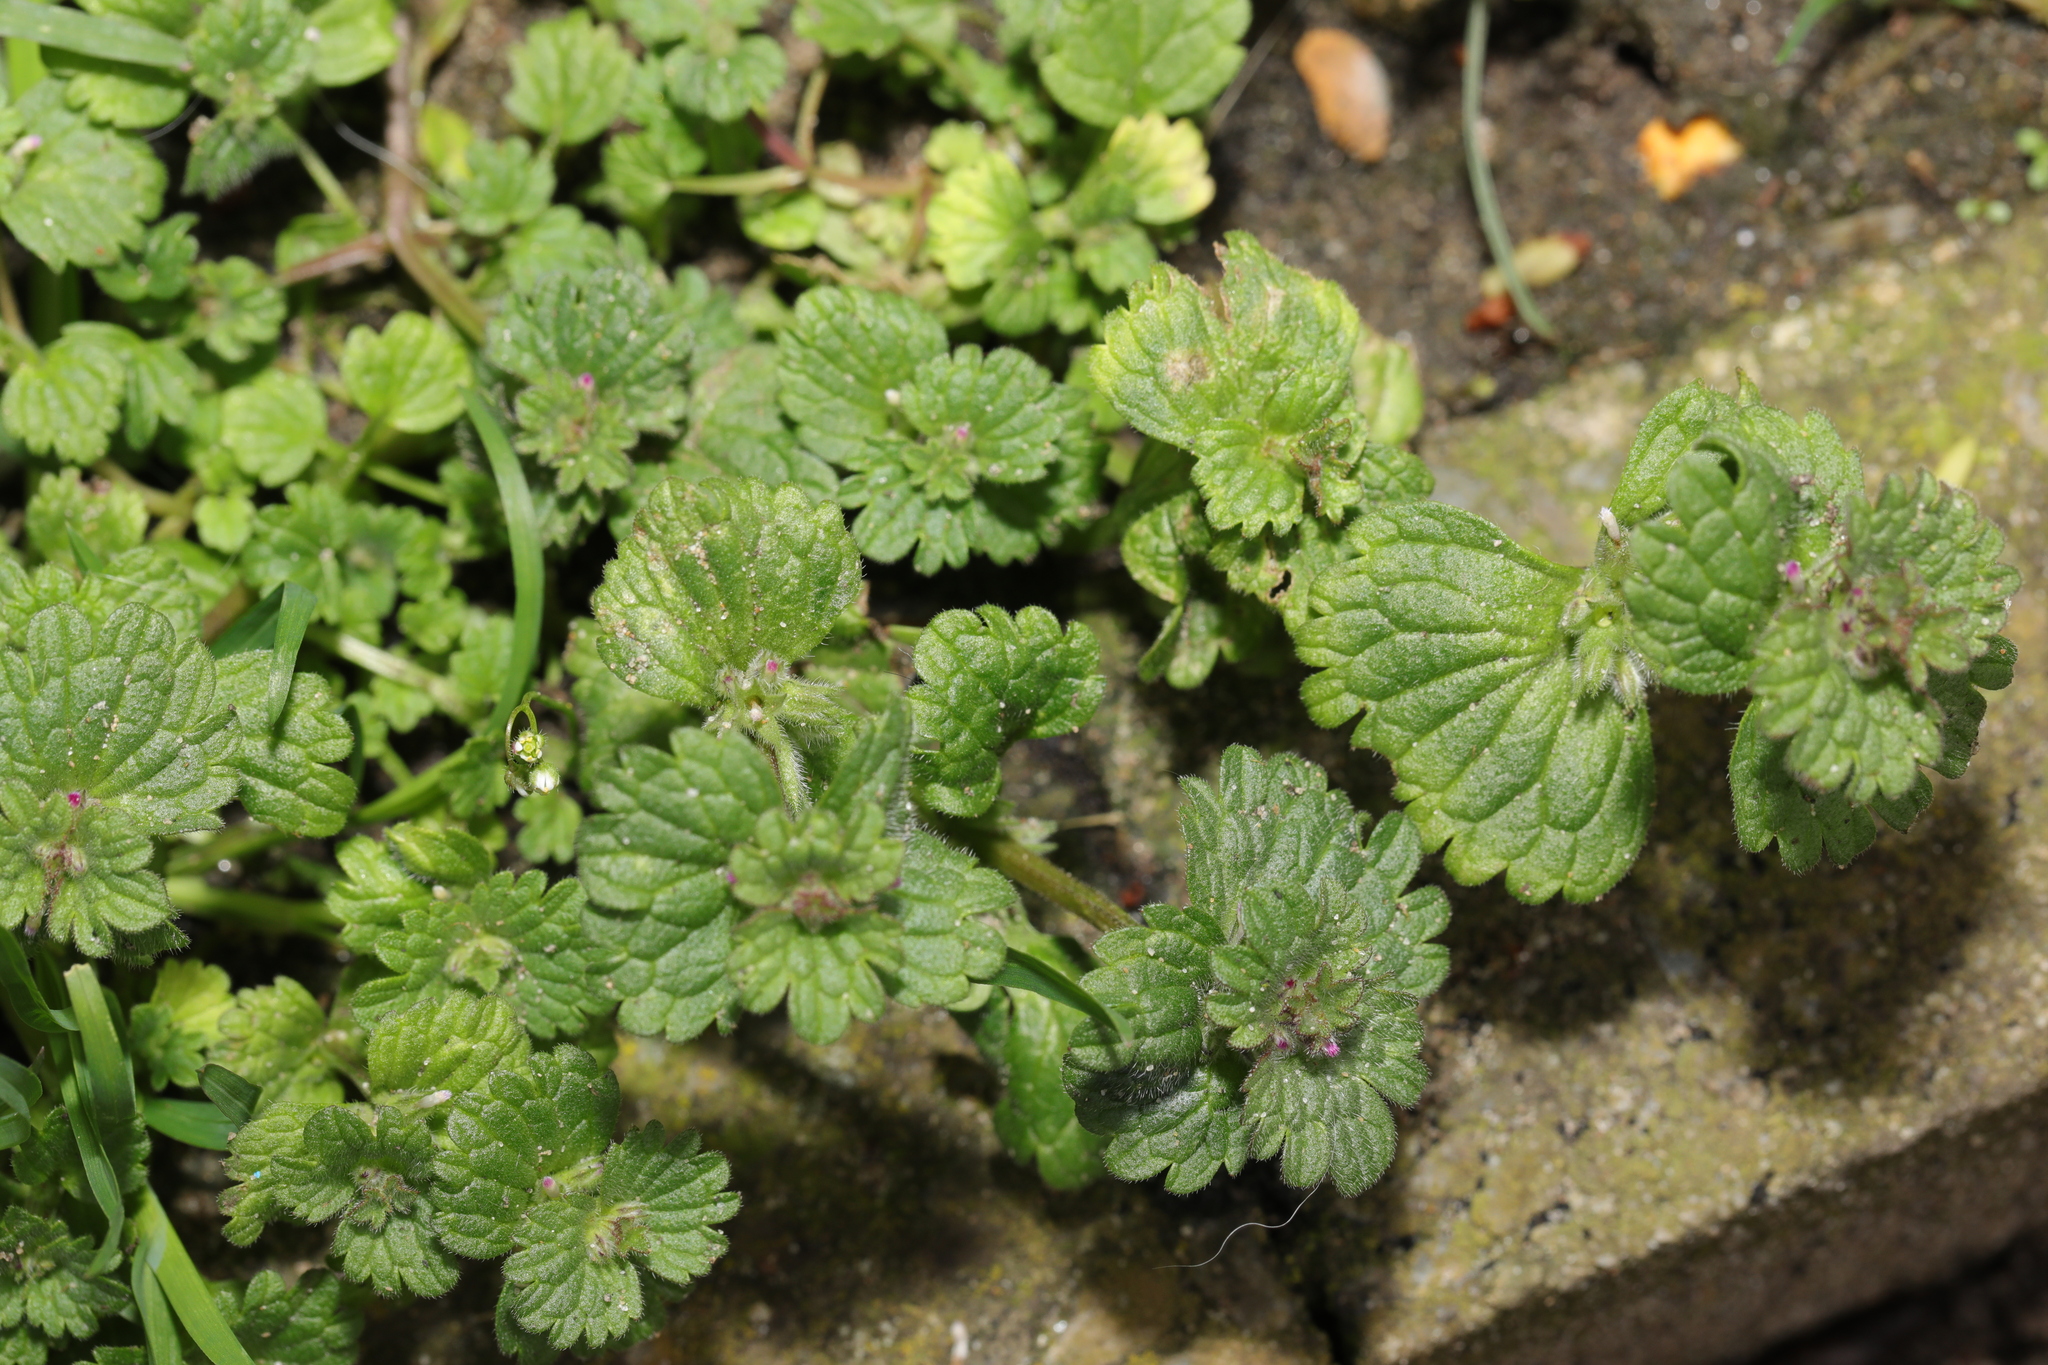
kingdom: Plantae
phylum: Tracheophyta
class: Magnoliopsida
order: Lamiales
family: Lamiaceae
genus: Lamium
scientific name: Lamium amplexicaule
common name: Henbit dead-nettle
